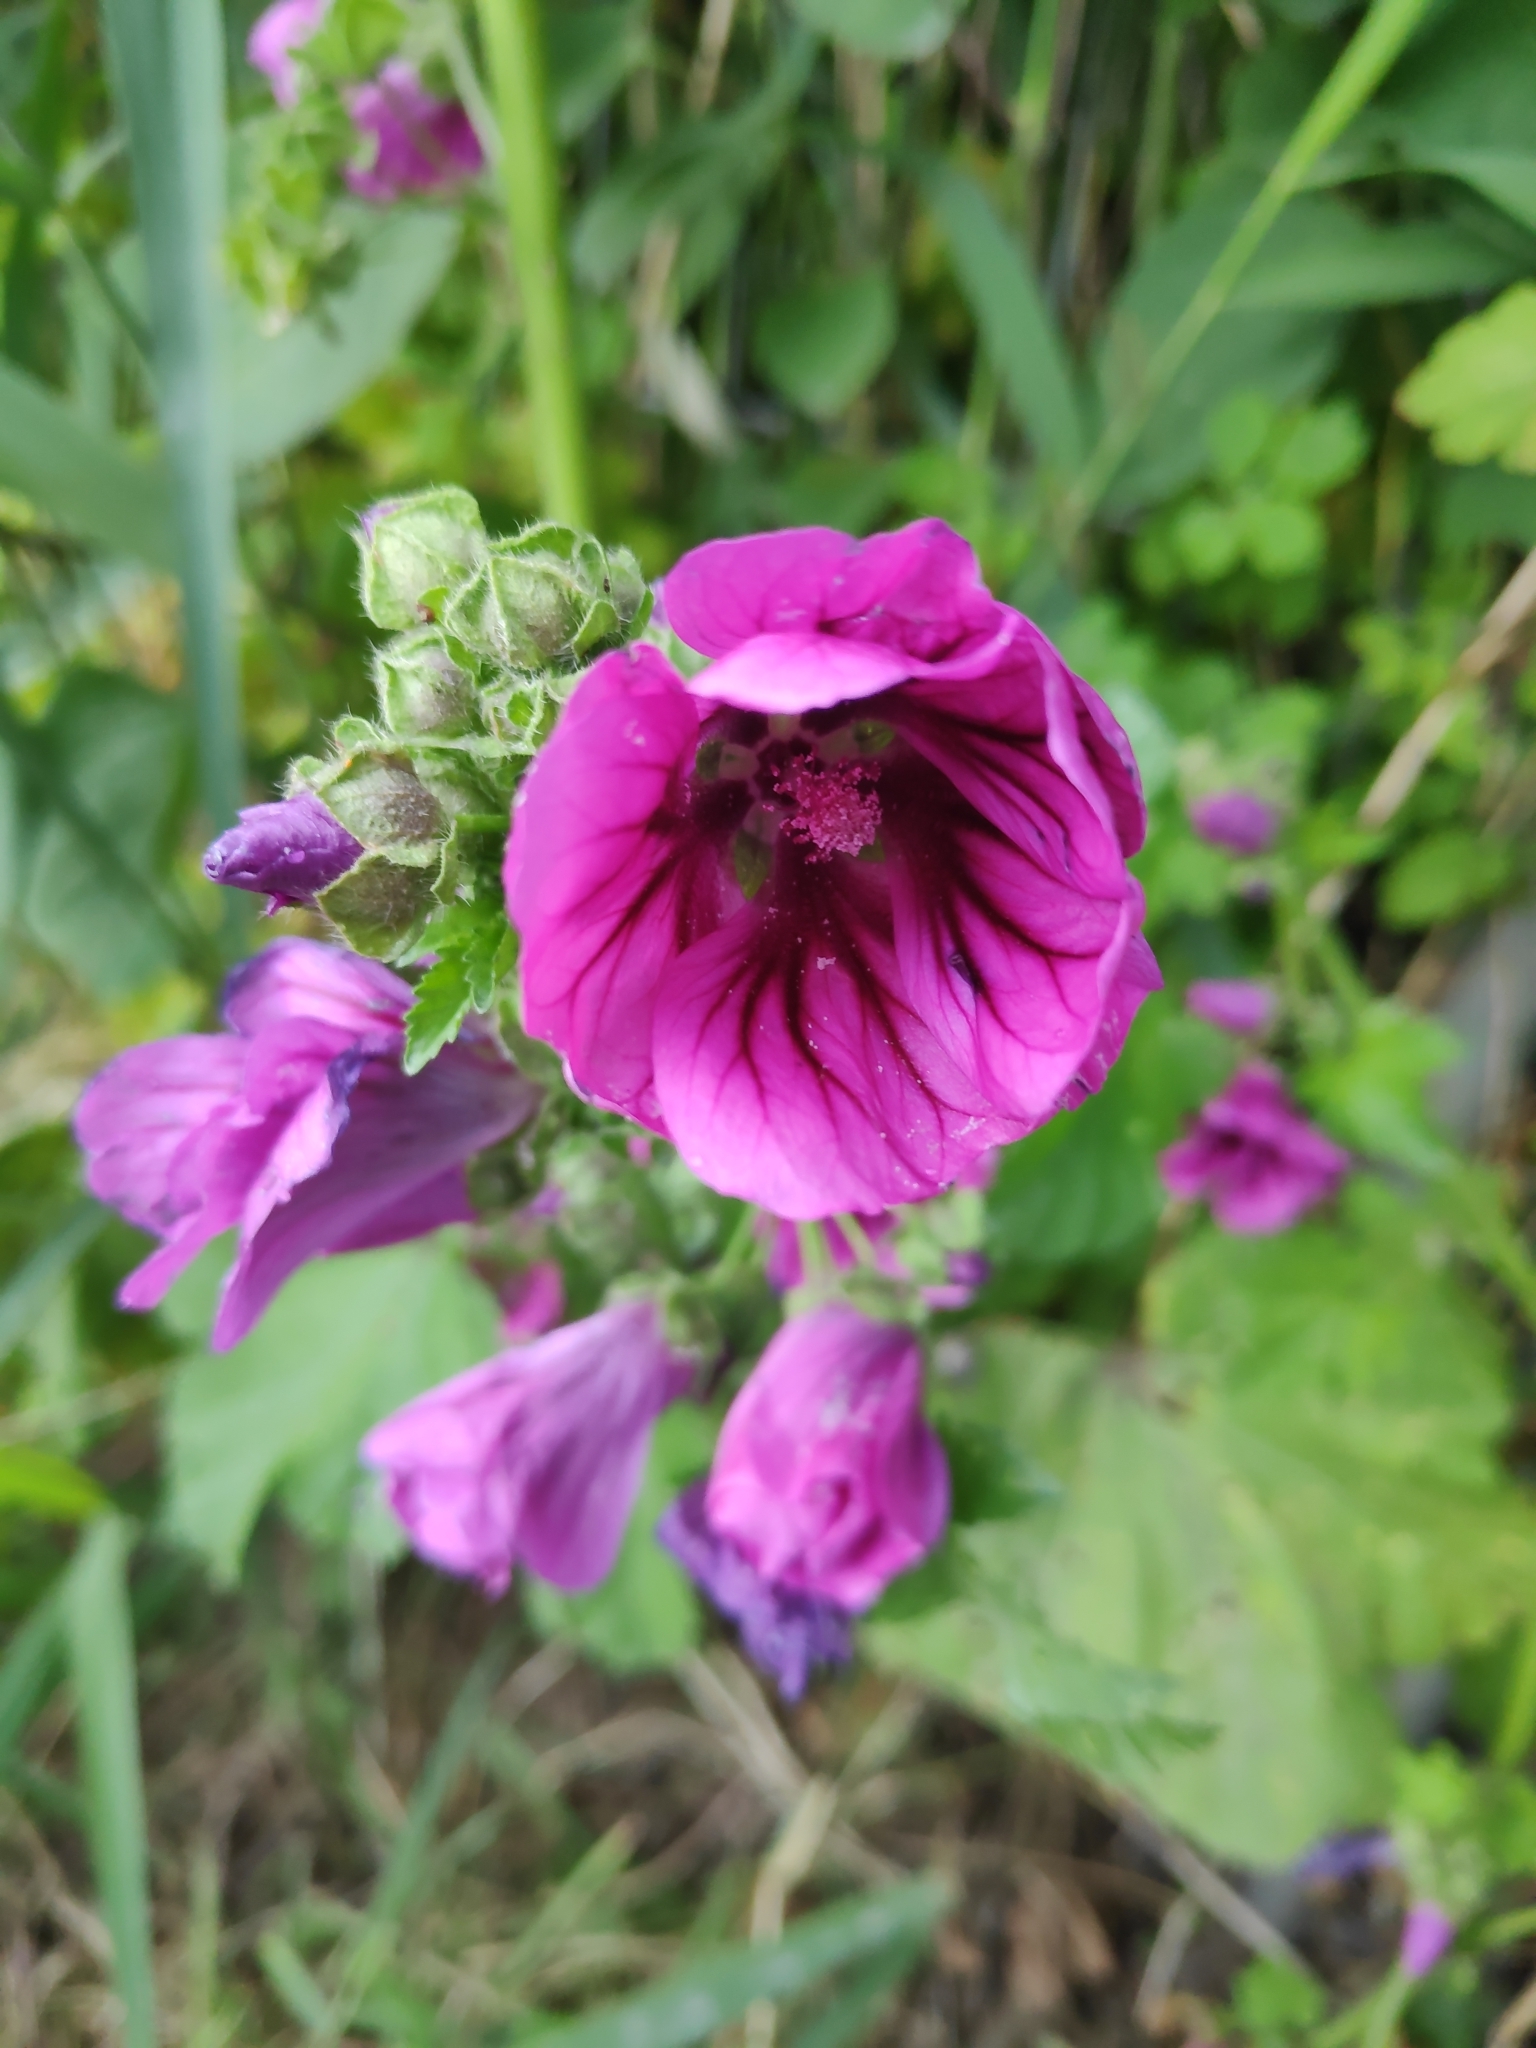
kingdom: Plantae
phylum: Tracheophyta
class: Magnoliopsida
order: Malvales
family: Malvaceae
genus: Malva
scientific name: Malva sylvestris
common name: Common mallow
